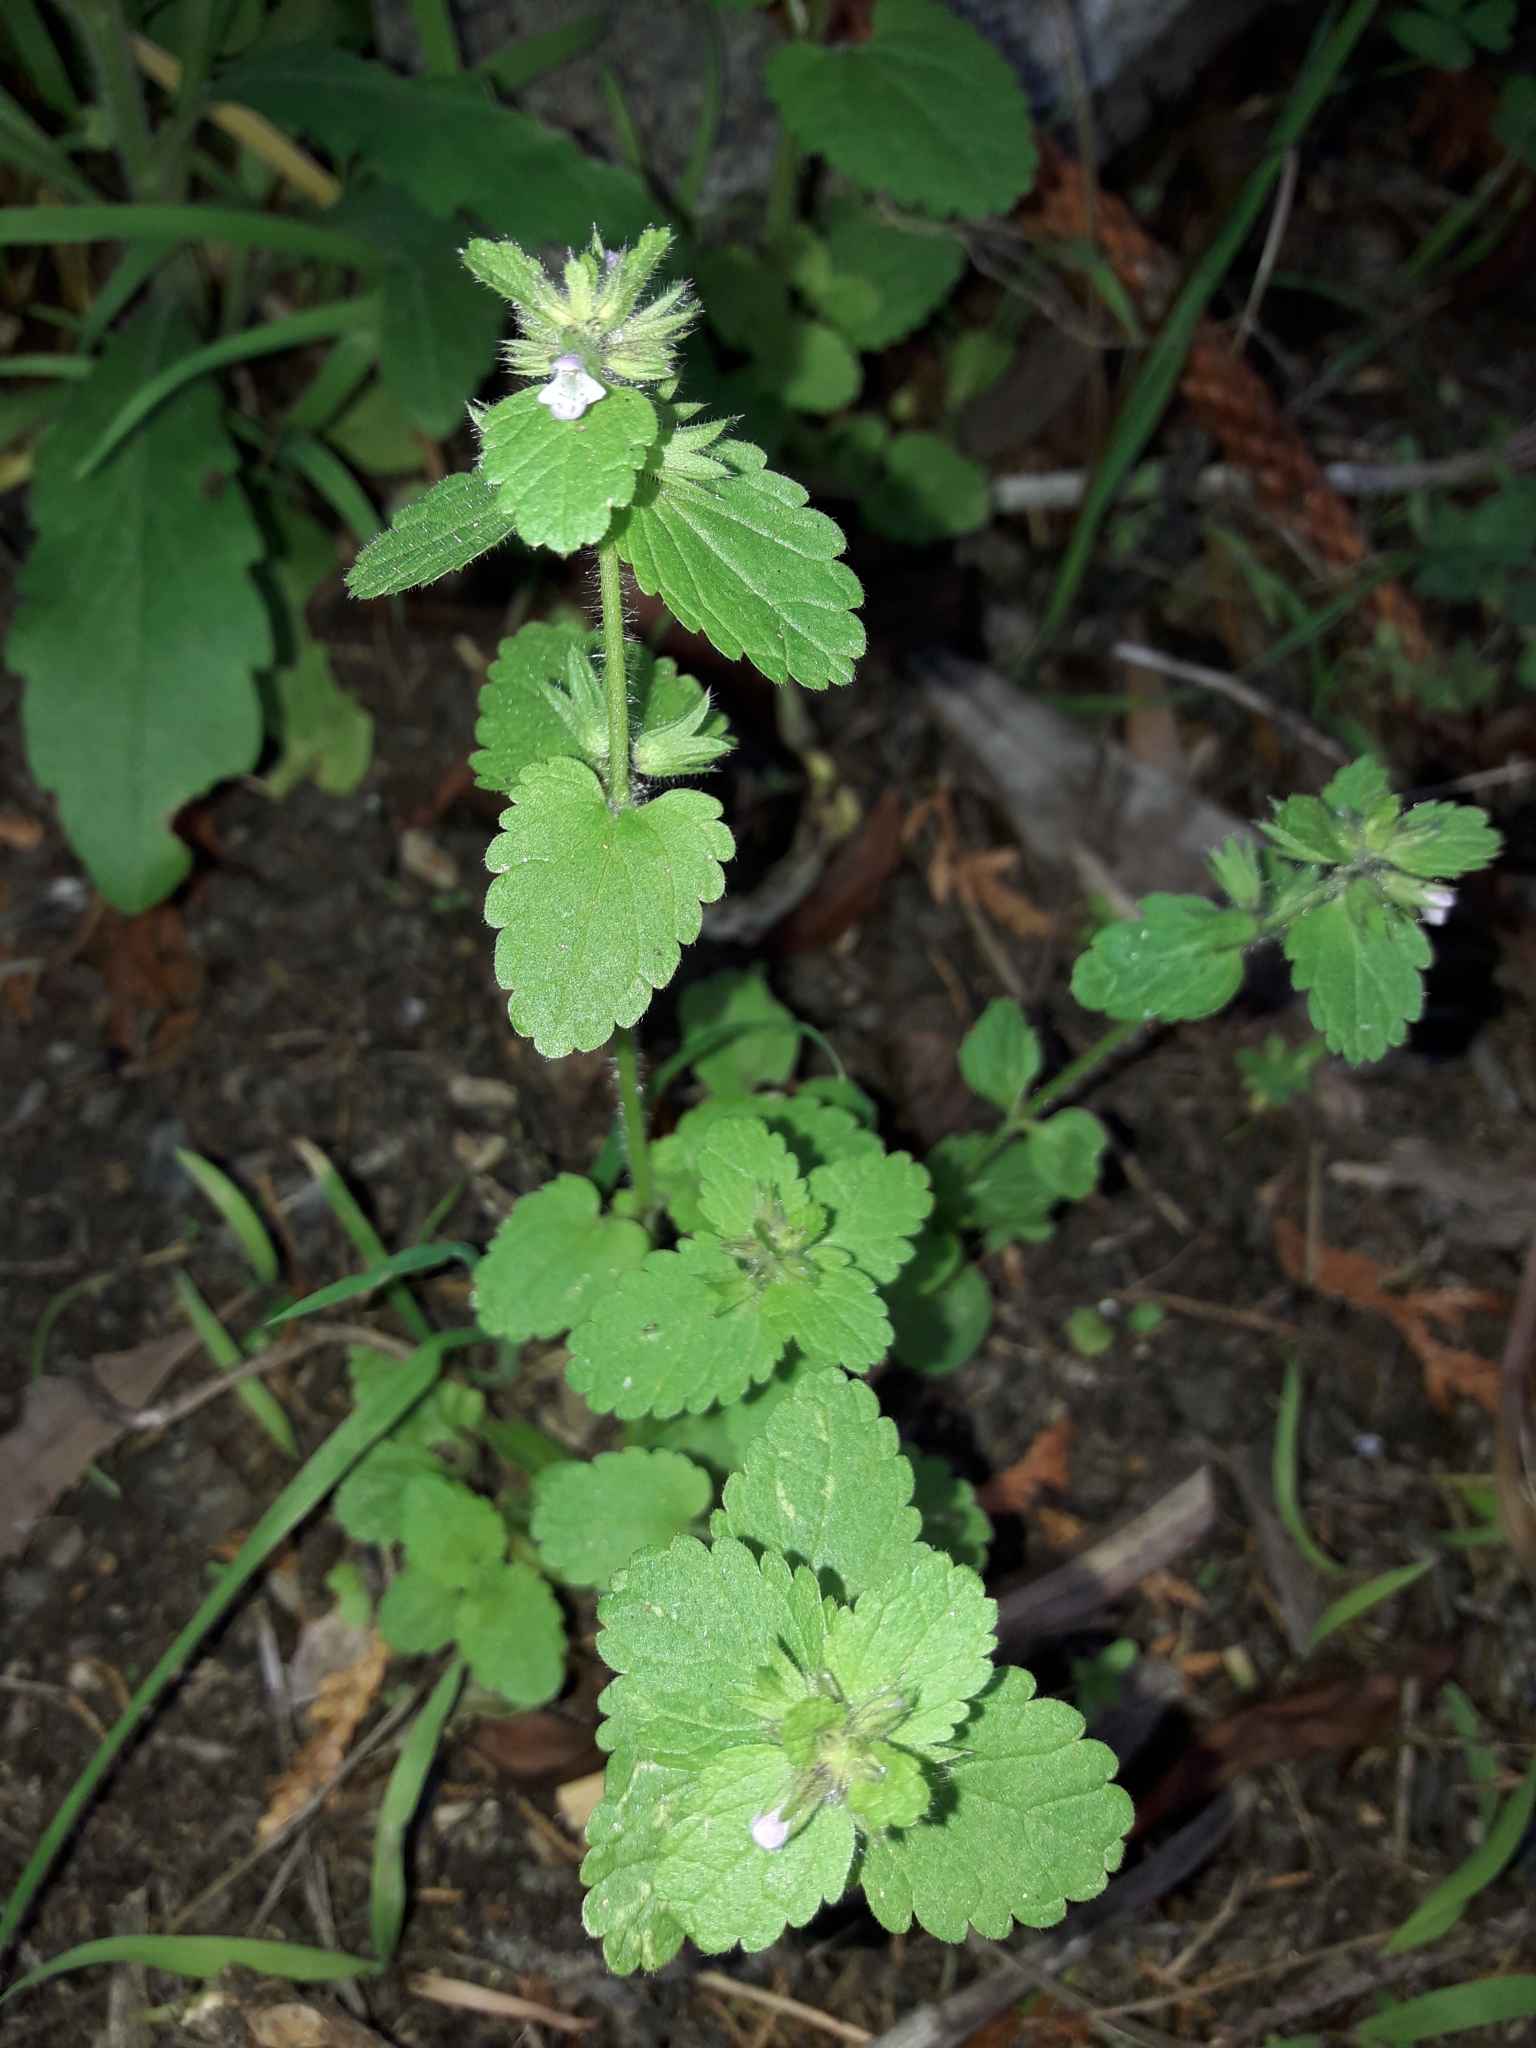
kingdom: Plantae
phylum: Tracheophyta
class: Magnoliopsida
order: Lamiales
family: Lamiaceae
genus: Stachys
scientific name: Stachys arvensis
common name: Field woundwort
